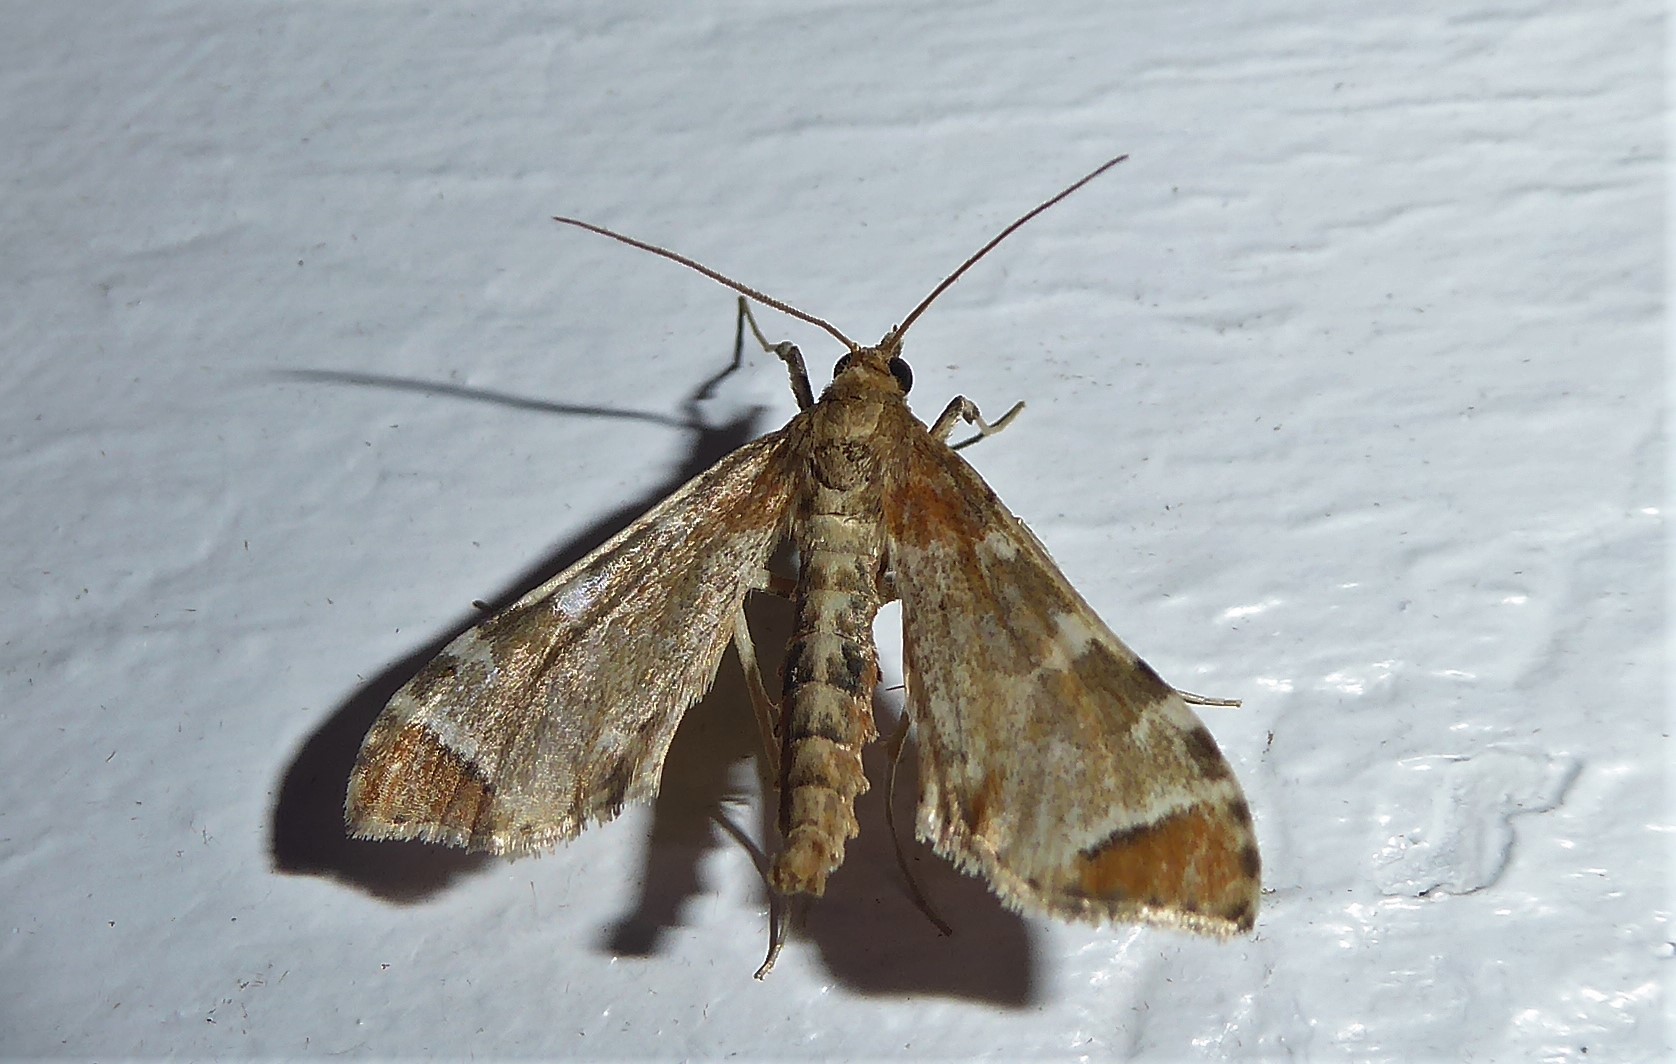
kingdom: Animalia
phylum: Arthropoda
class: Insecta
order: Lepidoptera
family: Crambidae
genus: Sceliodes
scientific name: Sceliodes cordalis
